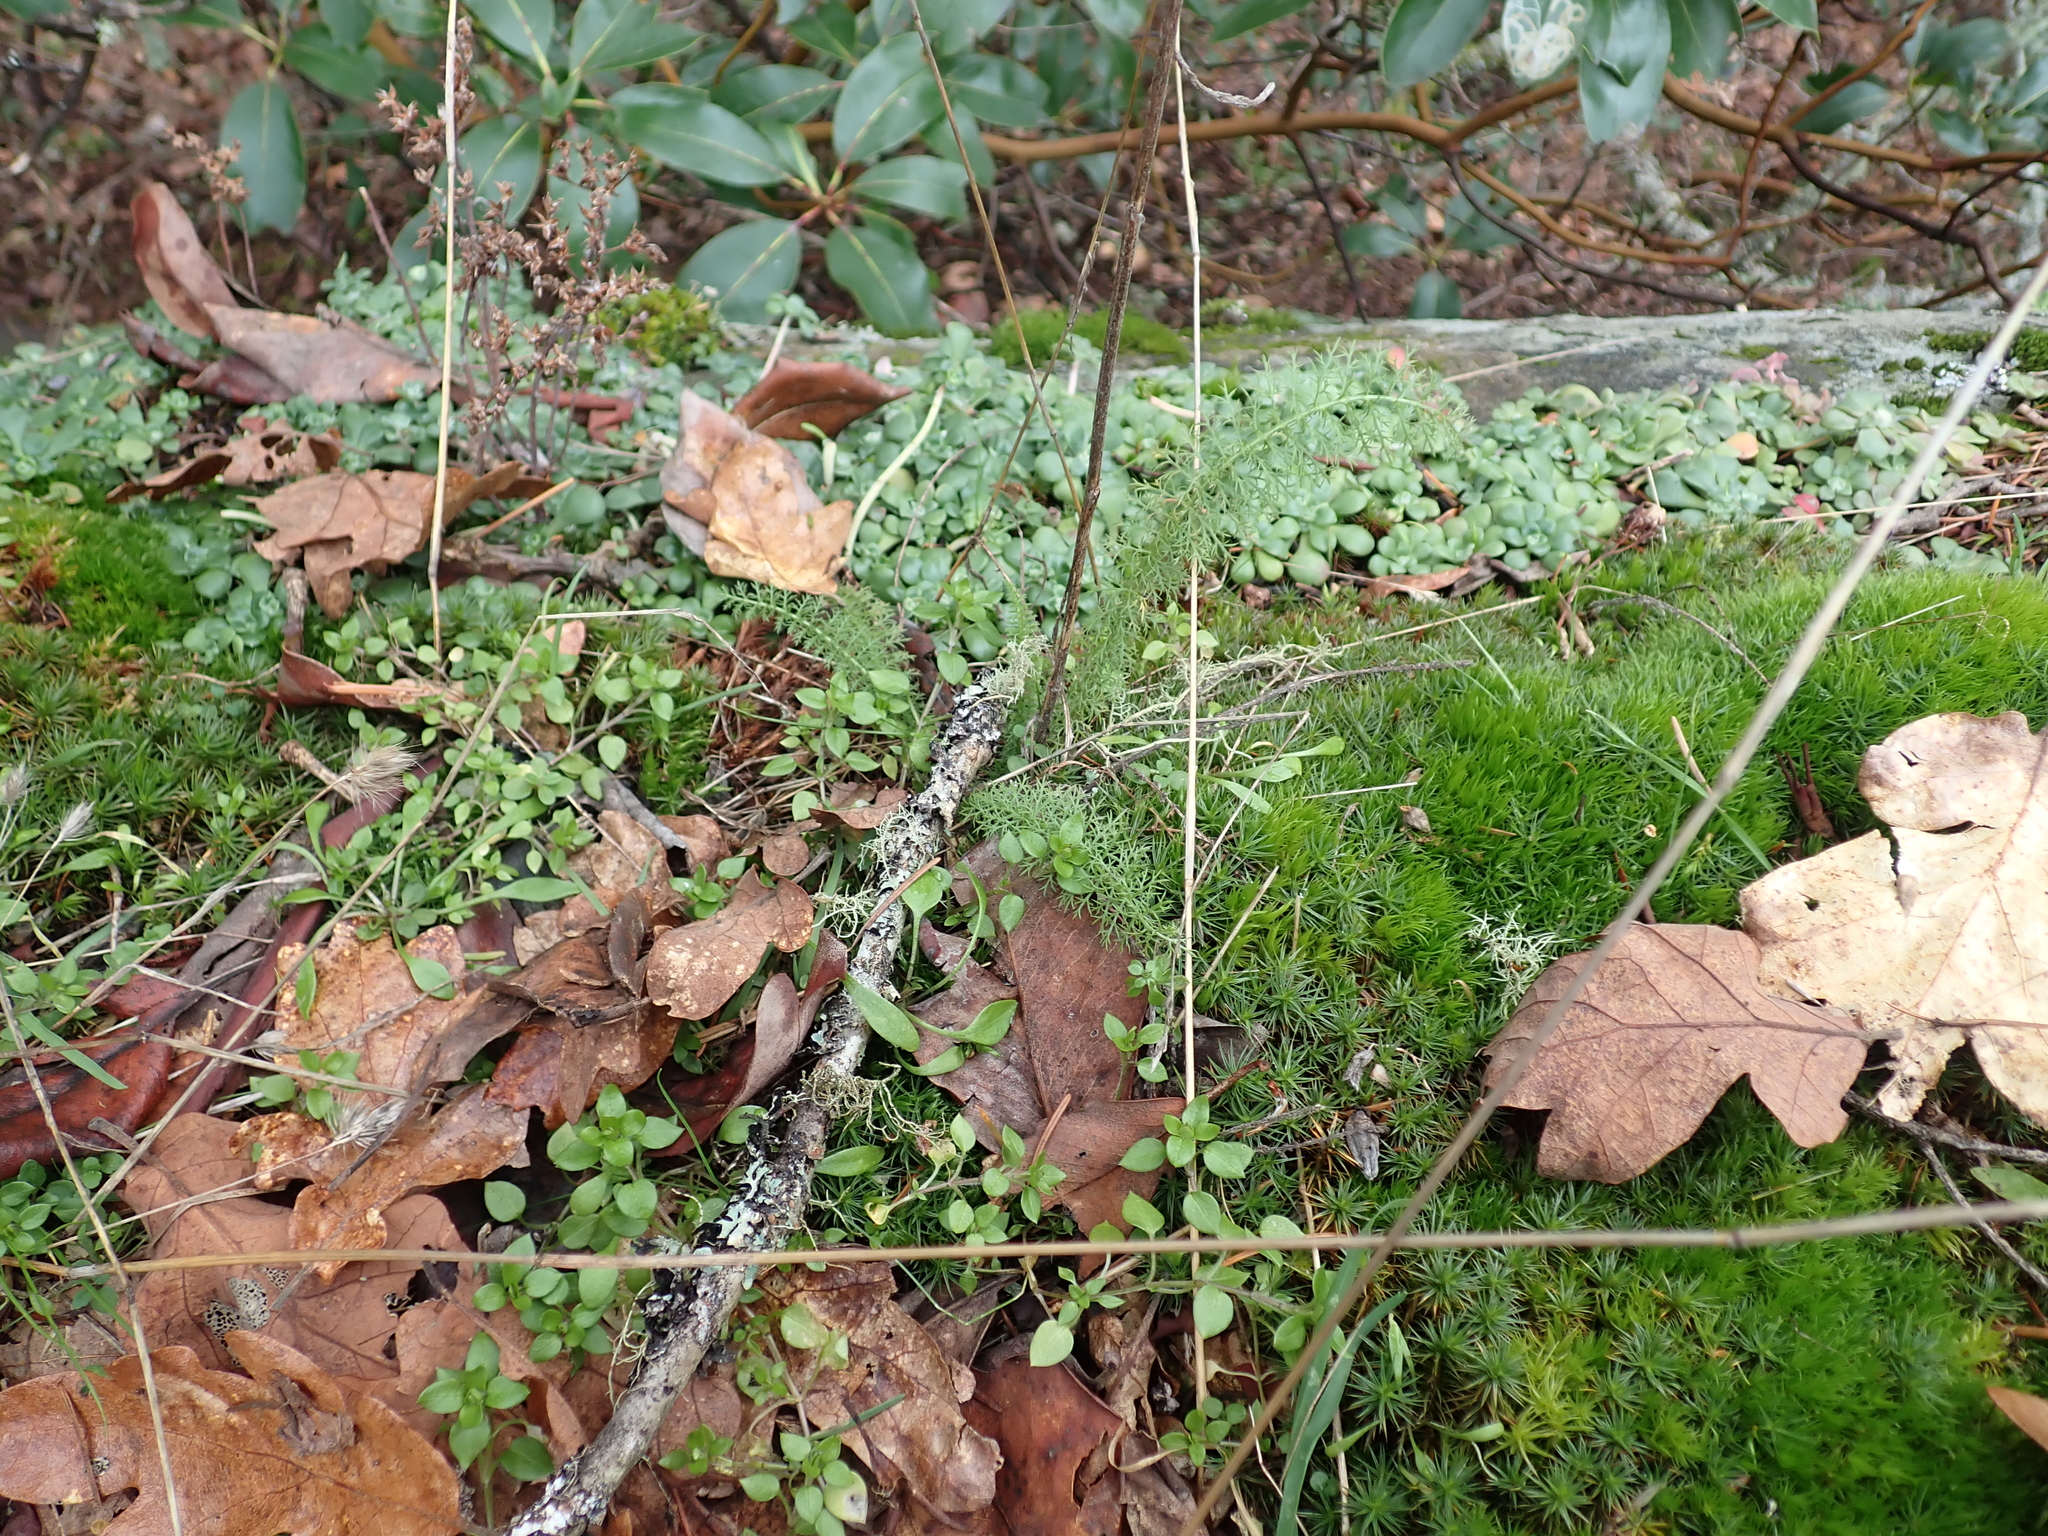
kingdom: Plantae
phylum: Tracheophyta
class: Magnoliopsida
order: Asterales
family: Asteraceae
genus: Achillea
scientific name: Achillea millefolium
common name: Yarrow
